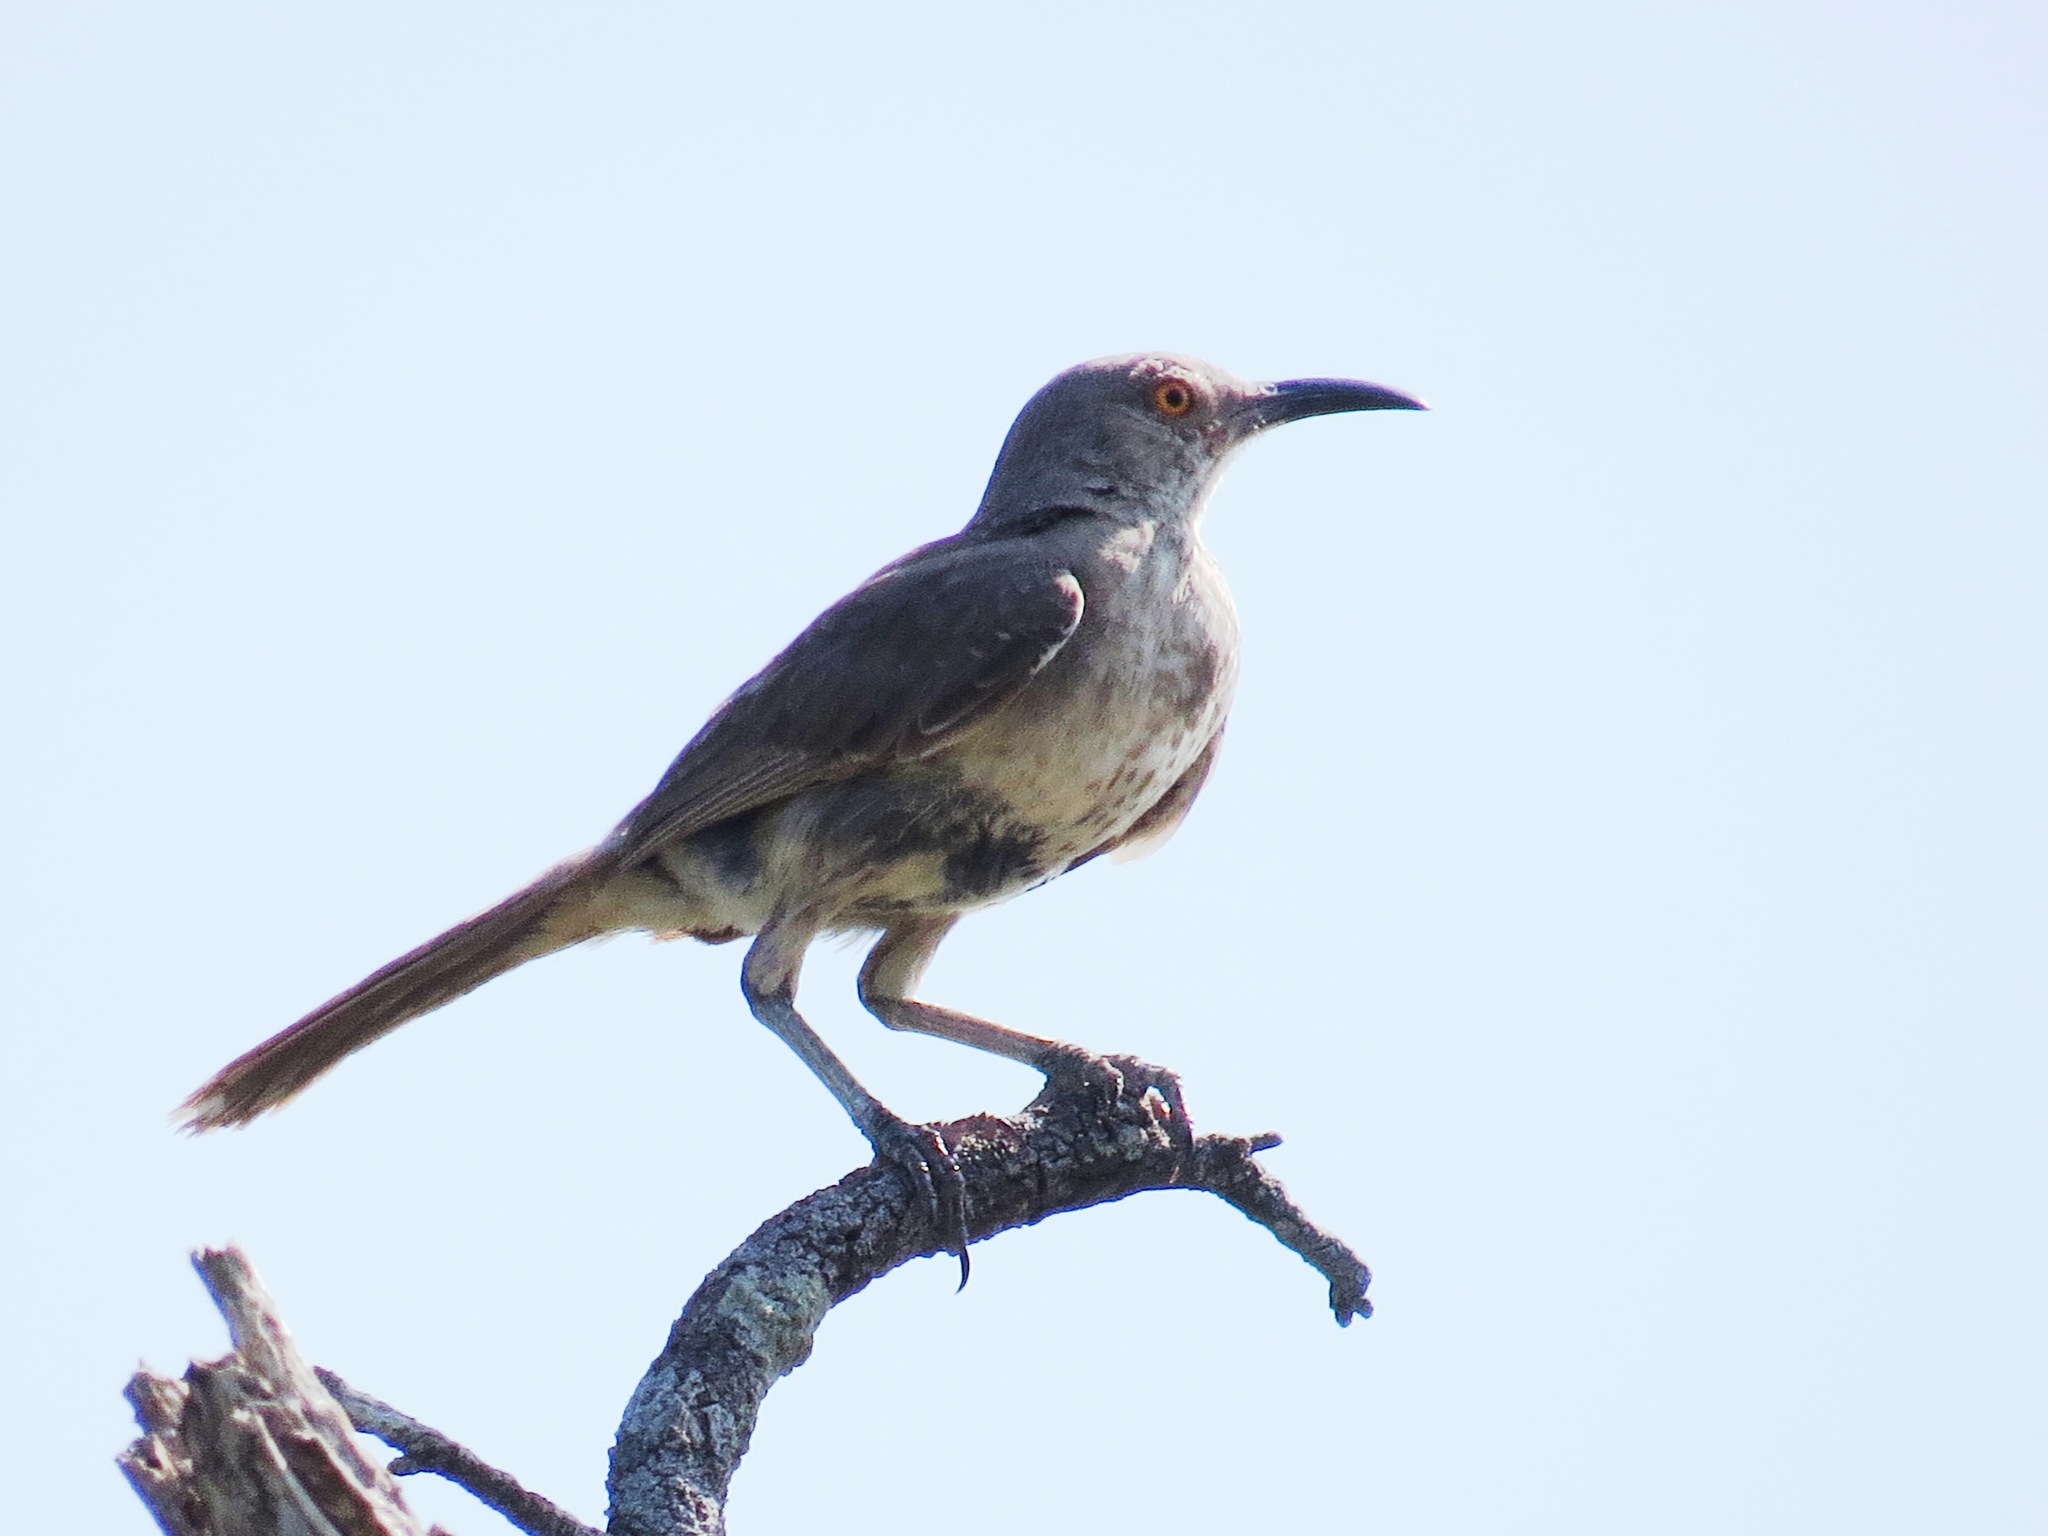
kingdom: Animalia
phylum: Chordata
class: Aves
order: Passeriformes
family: Mimidae
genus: Toxostoma
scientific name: Toxostoma curvirostre
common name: Curve-billed thrasher
